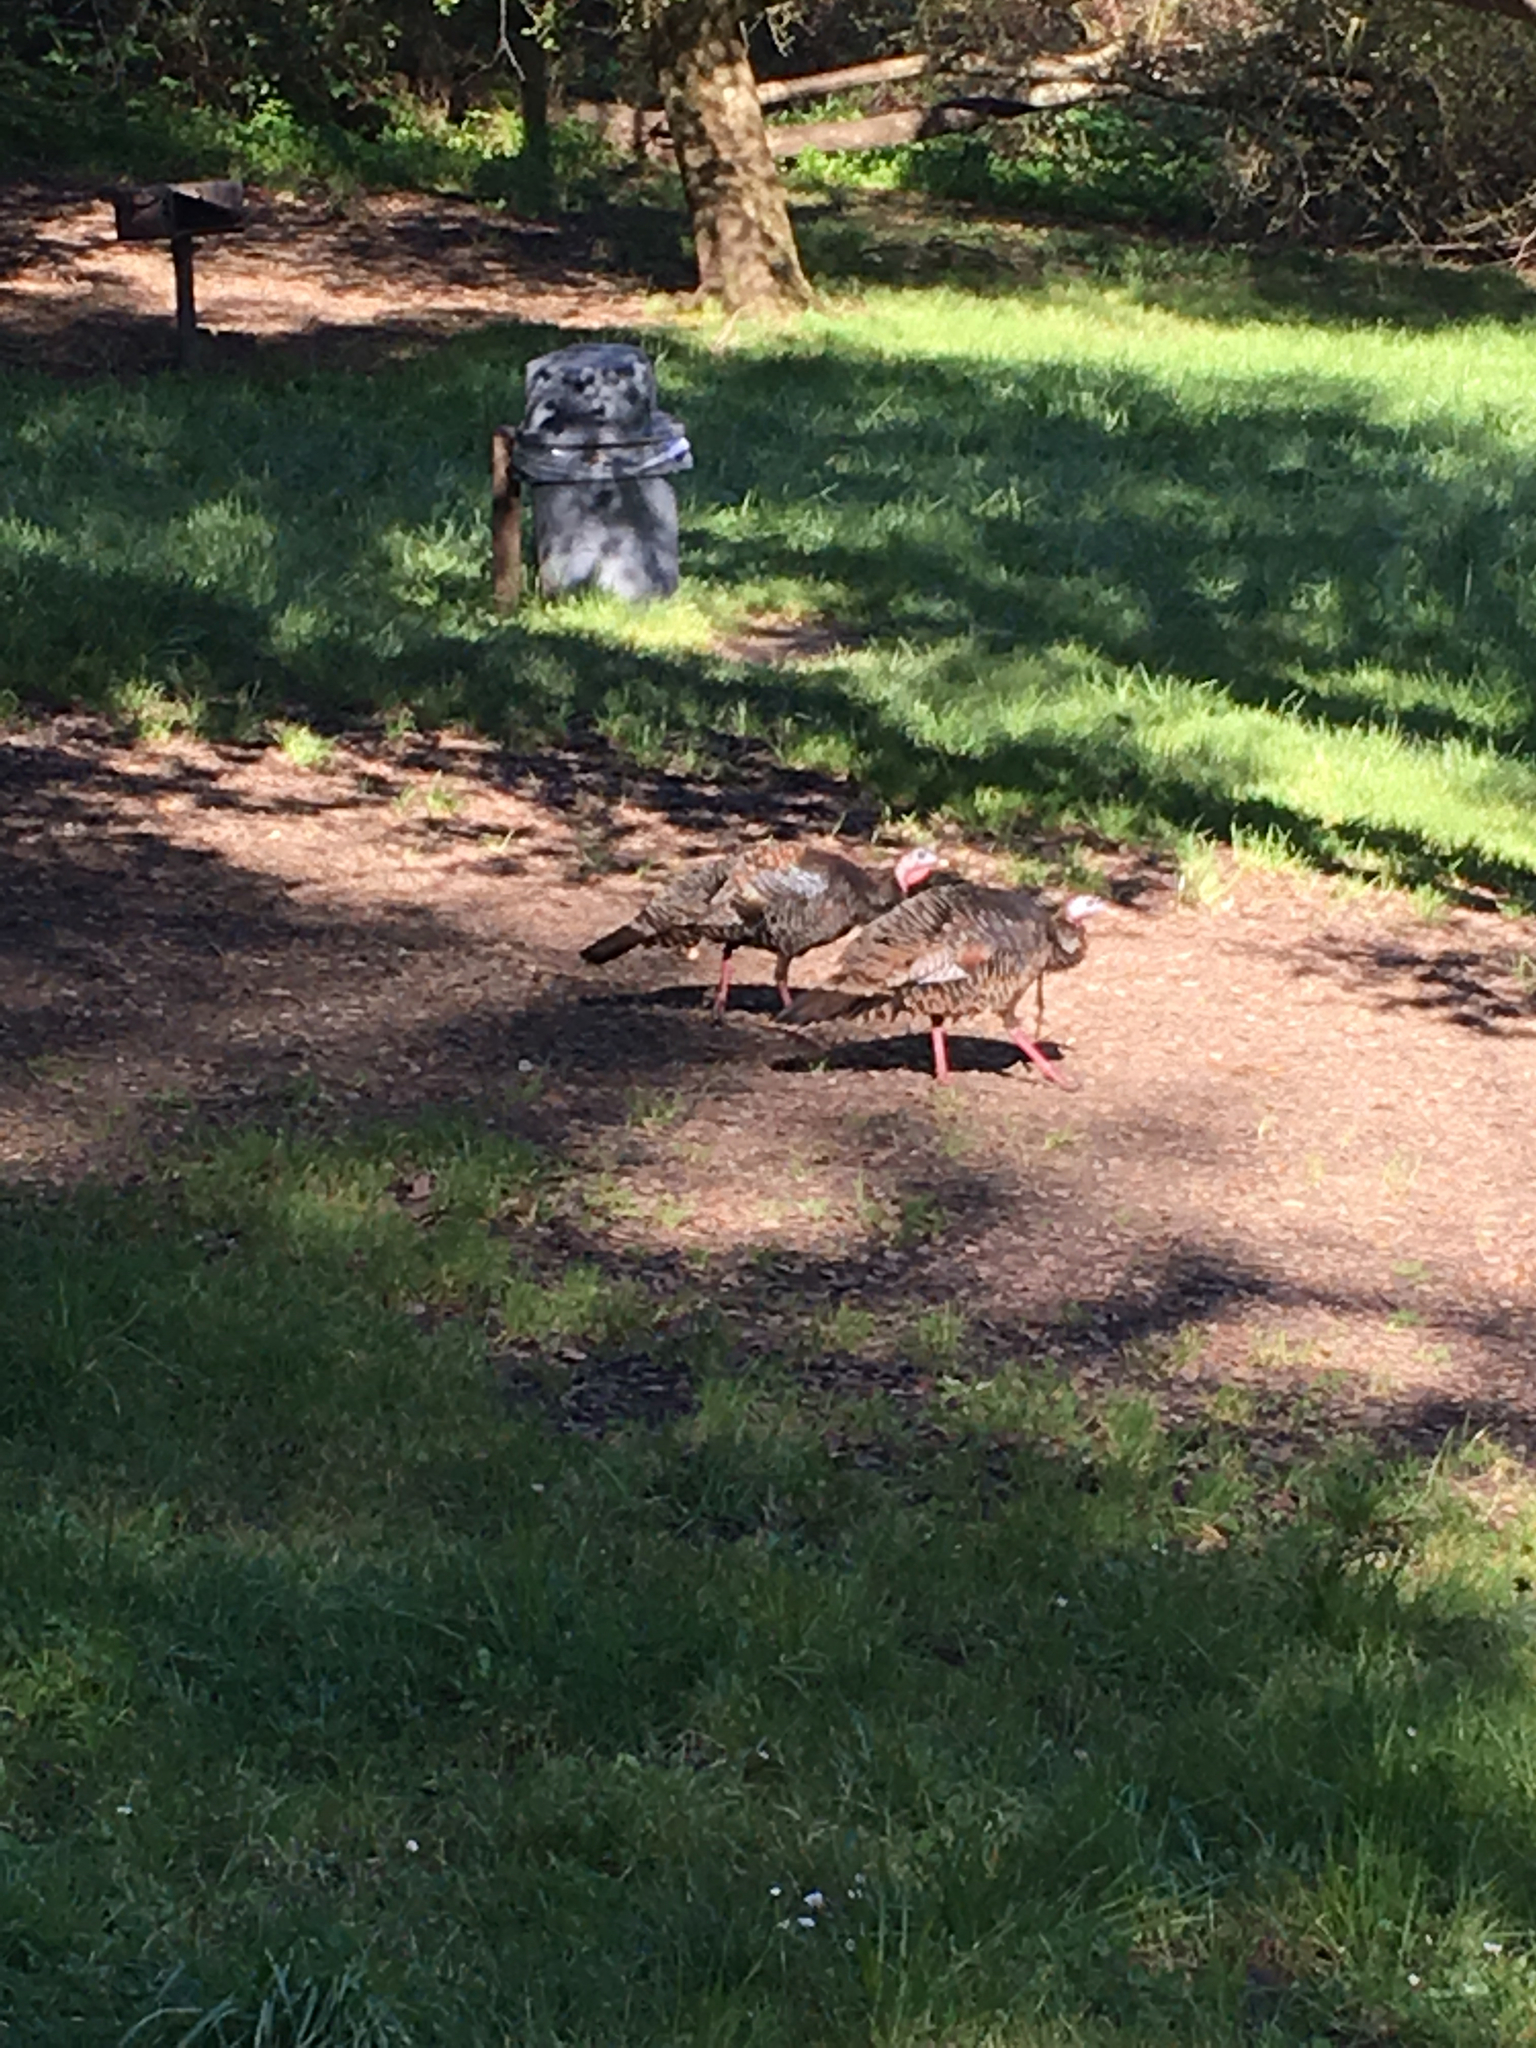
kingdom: Animalia
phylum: Chordata
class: Aves
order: Galliformes
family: Phasianidae
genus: Meleagris
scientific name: Meleagris gallopavo
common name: Wild turkey
